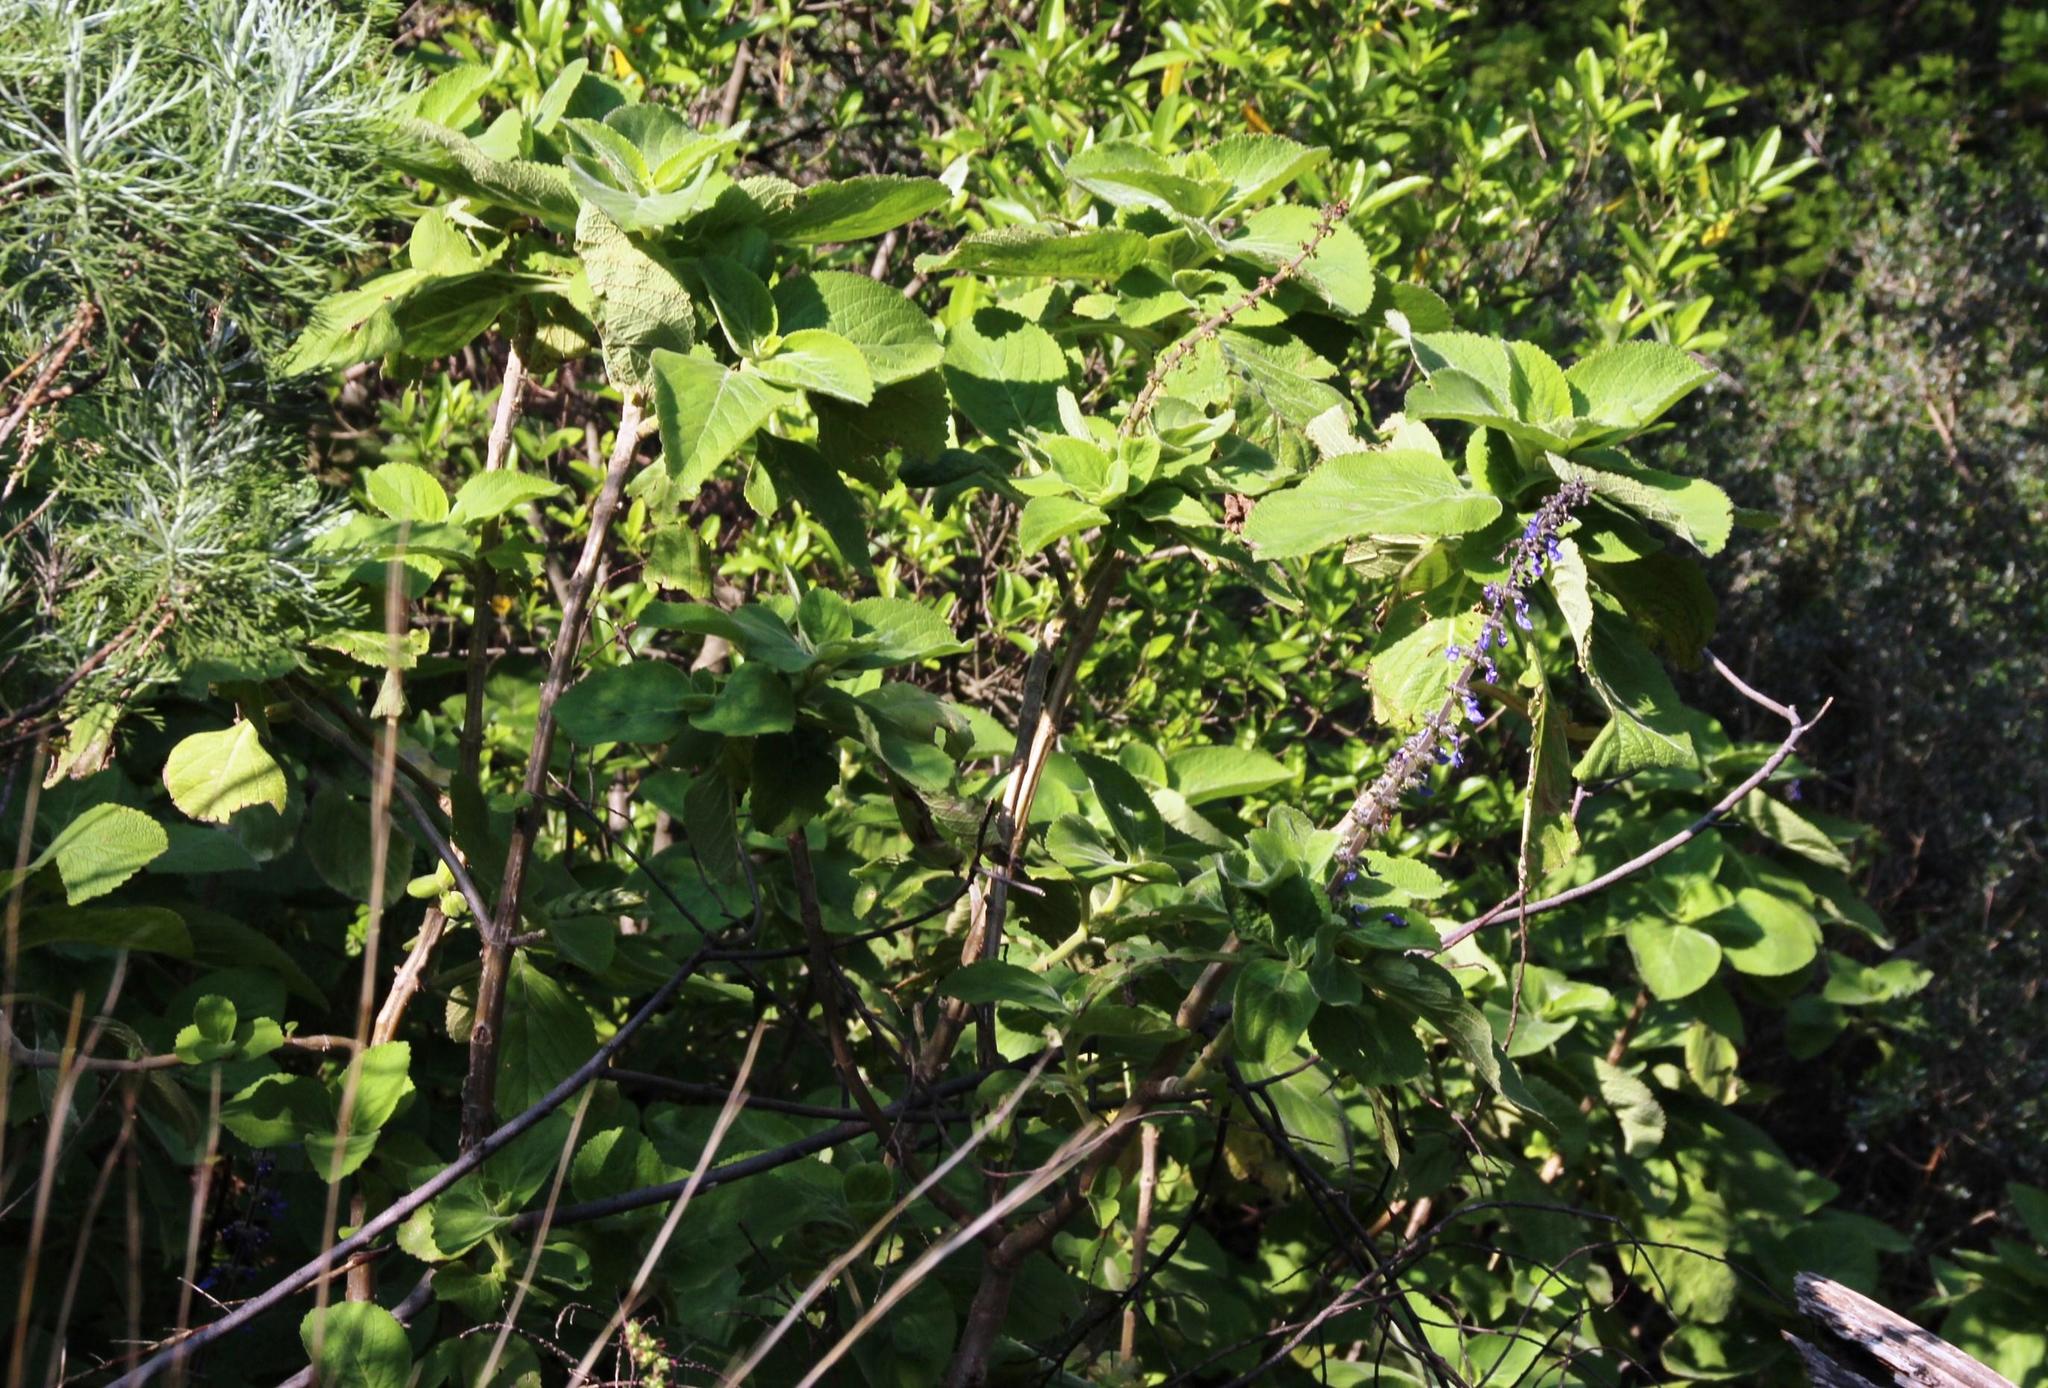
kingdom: Plantae
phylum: Tracheophyta
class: Magnoliopsida
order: Lamiales
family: Lamiaceae
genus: Coleus
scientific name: Coleus barbatus
